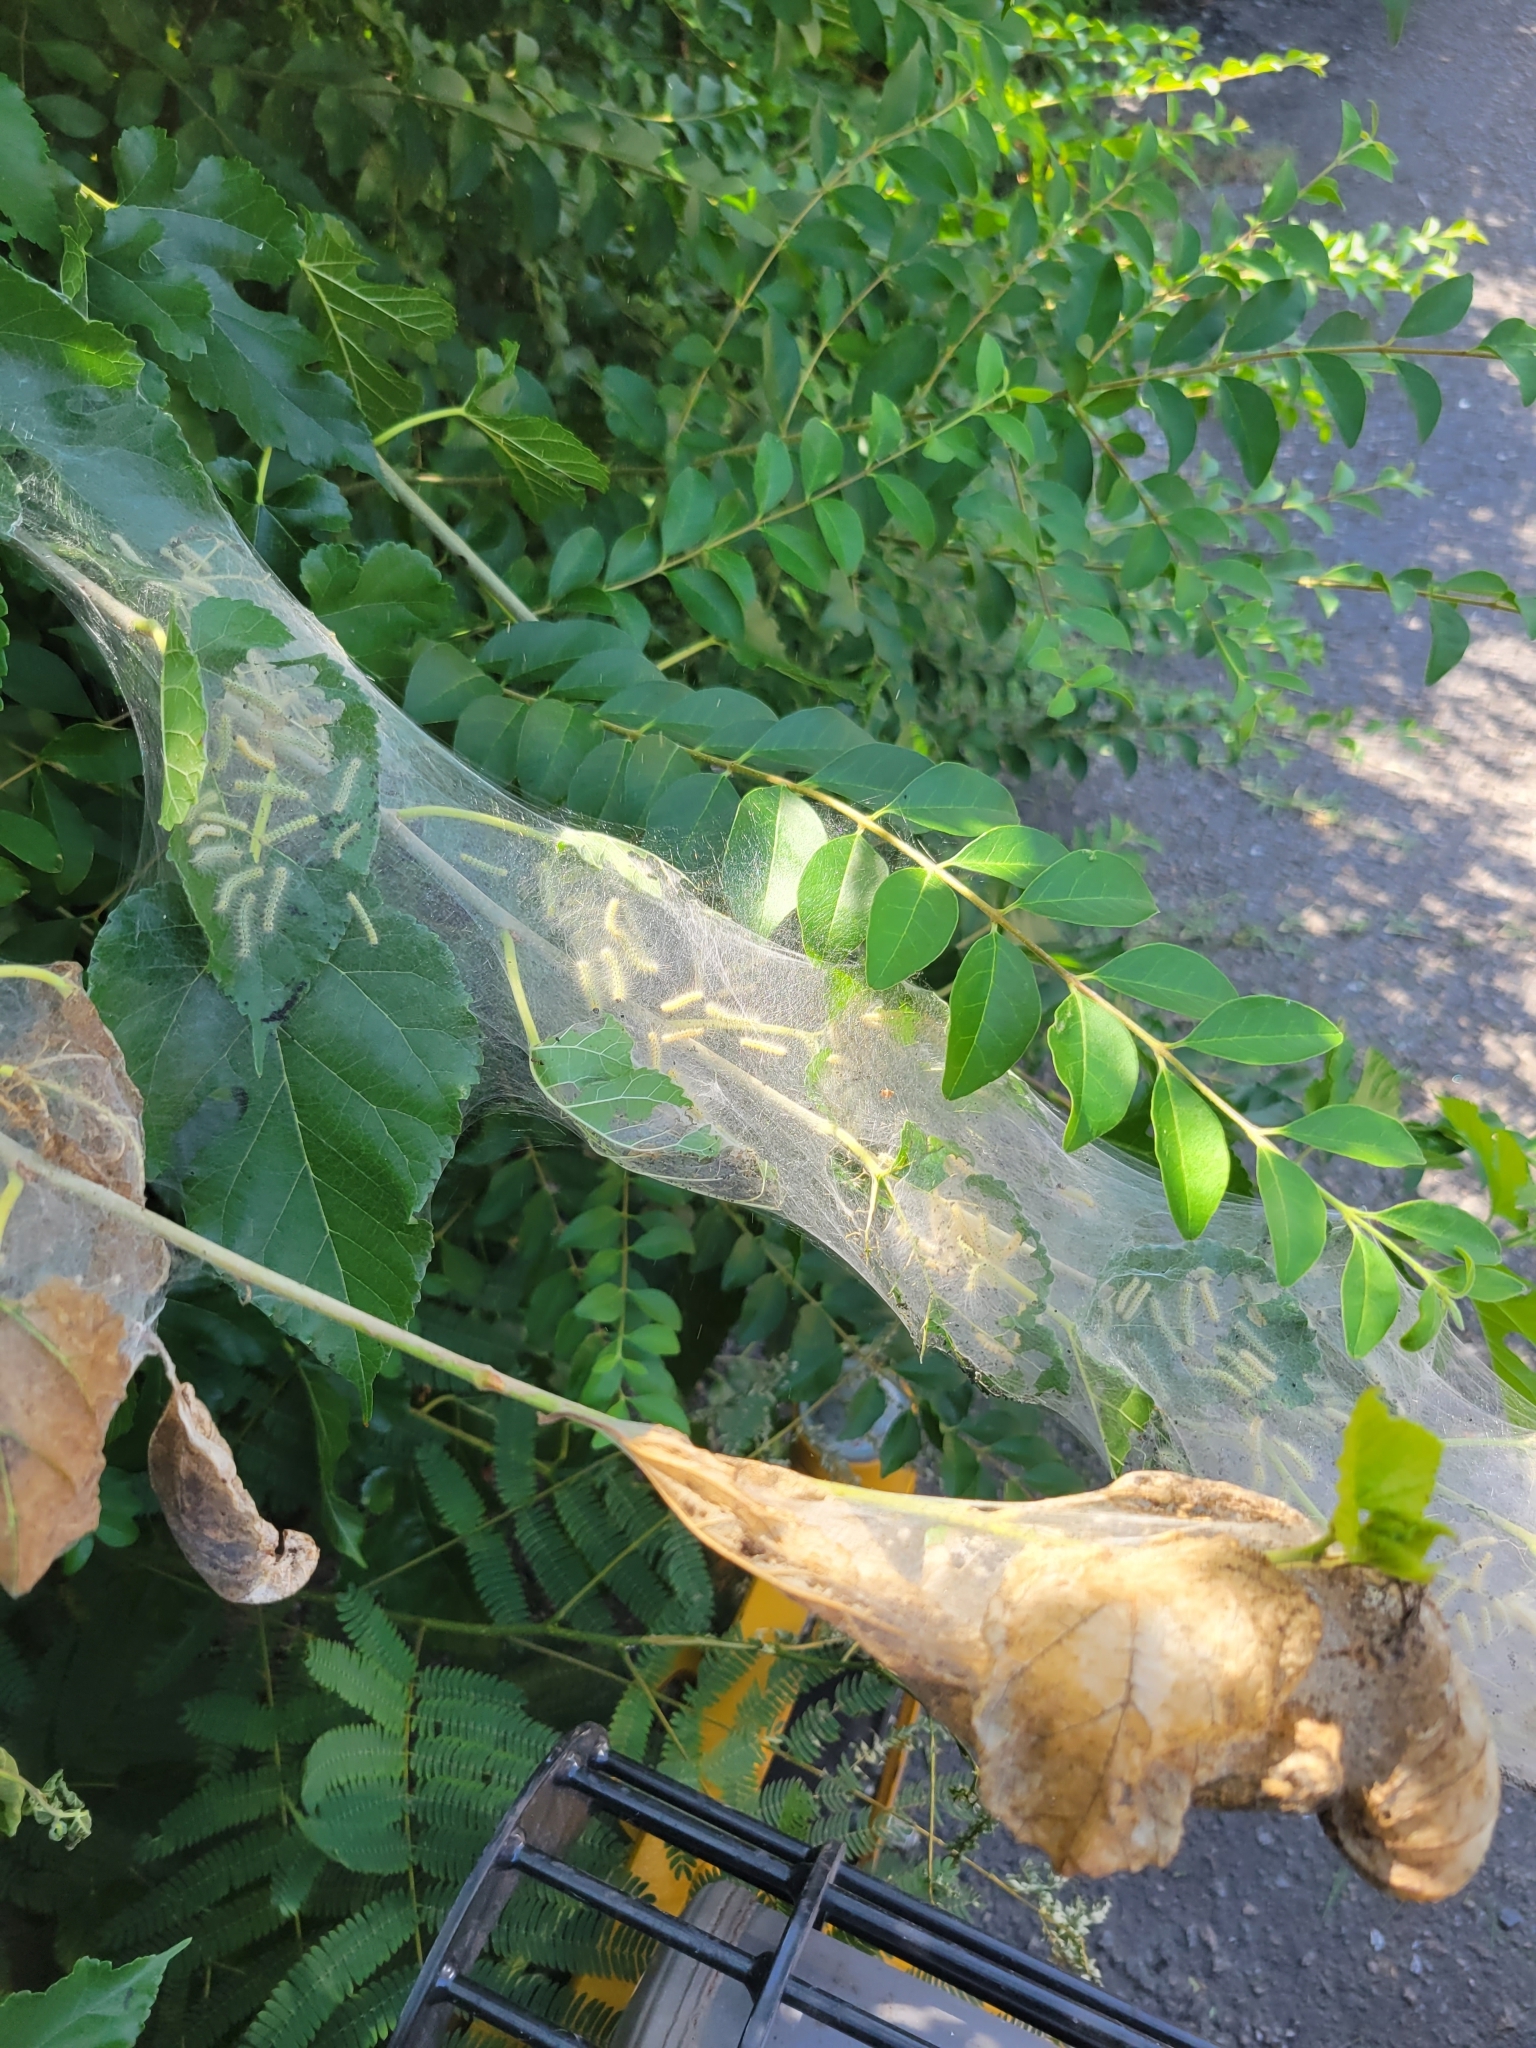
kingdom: Animalia
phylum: Arthropoda
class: Insecta
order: Lepidoptera
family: Erebidae
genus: Hyphantria
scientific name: Hyphantria cunea
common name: American white moth
